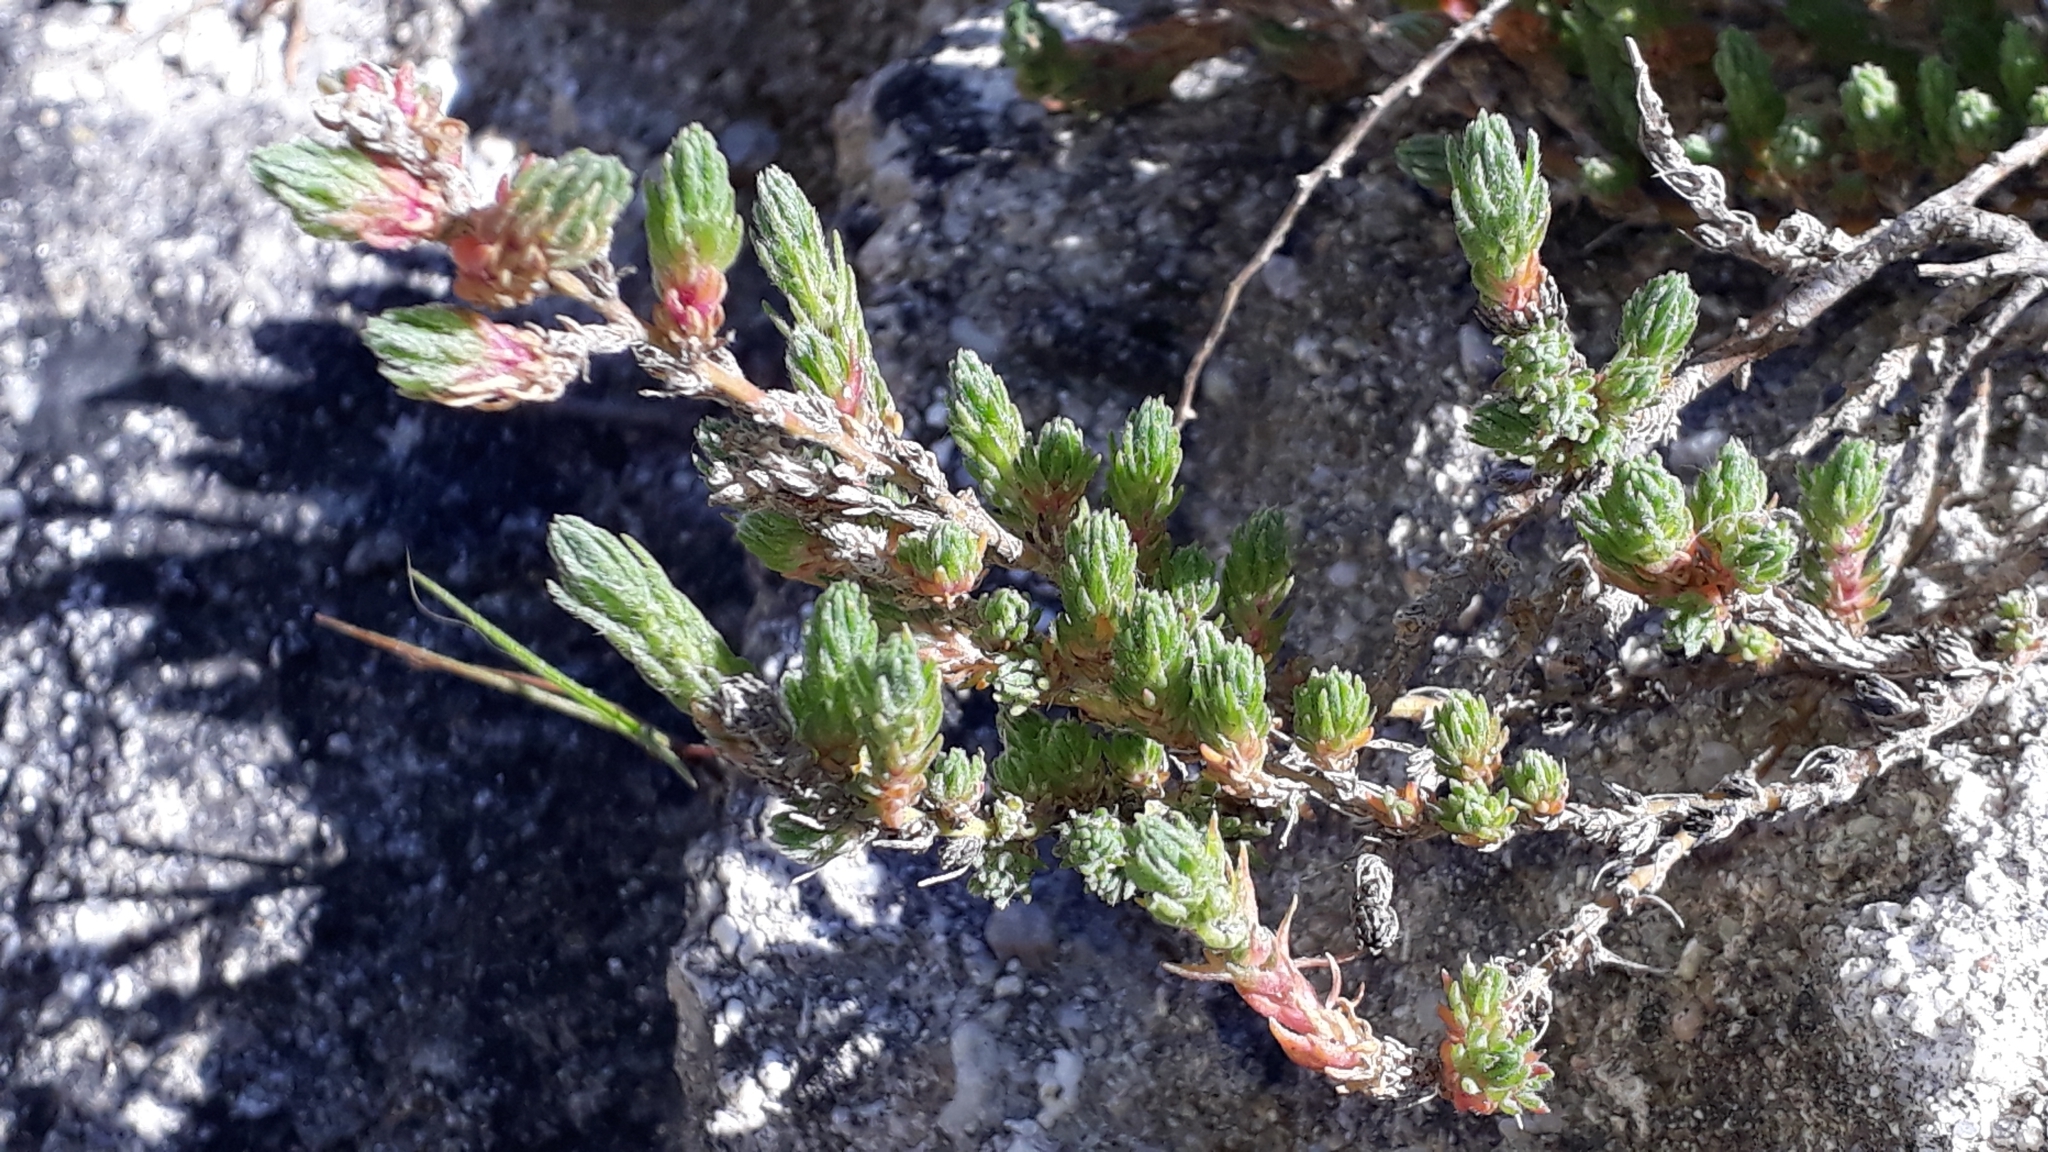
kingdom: Plantae
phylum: Tracheophyta
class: Magnoliopsida
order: Caryophyllales
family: Amaranthaceae
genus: Camphorosma
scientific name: Camphorosma monspeliaca
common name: Camphorfume
